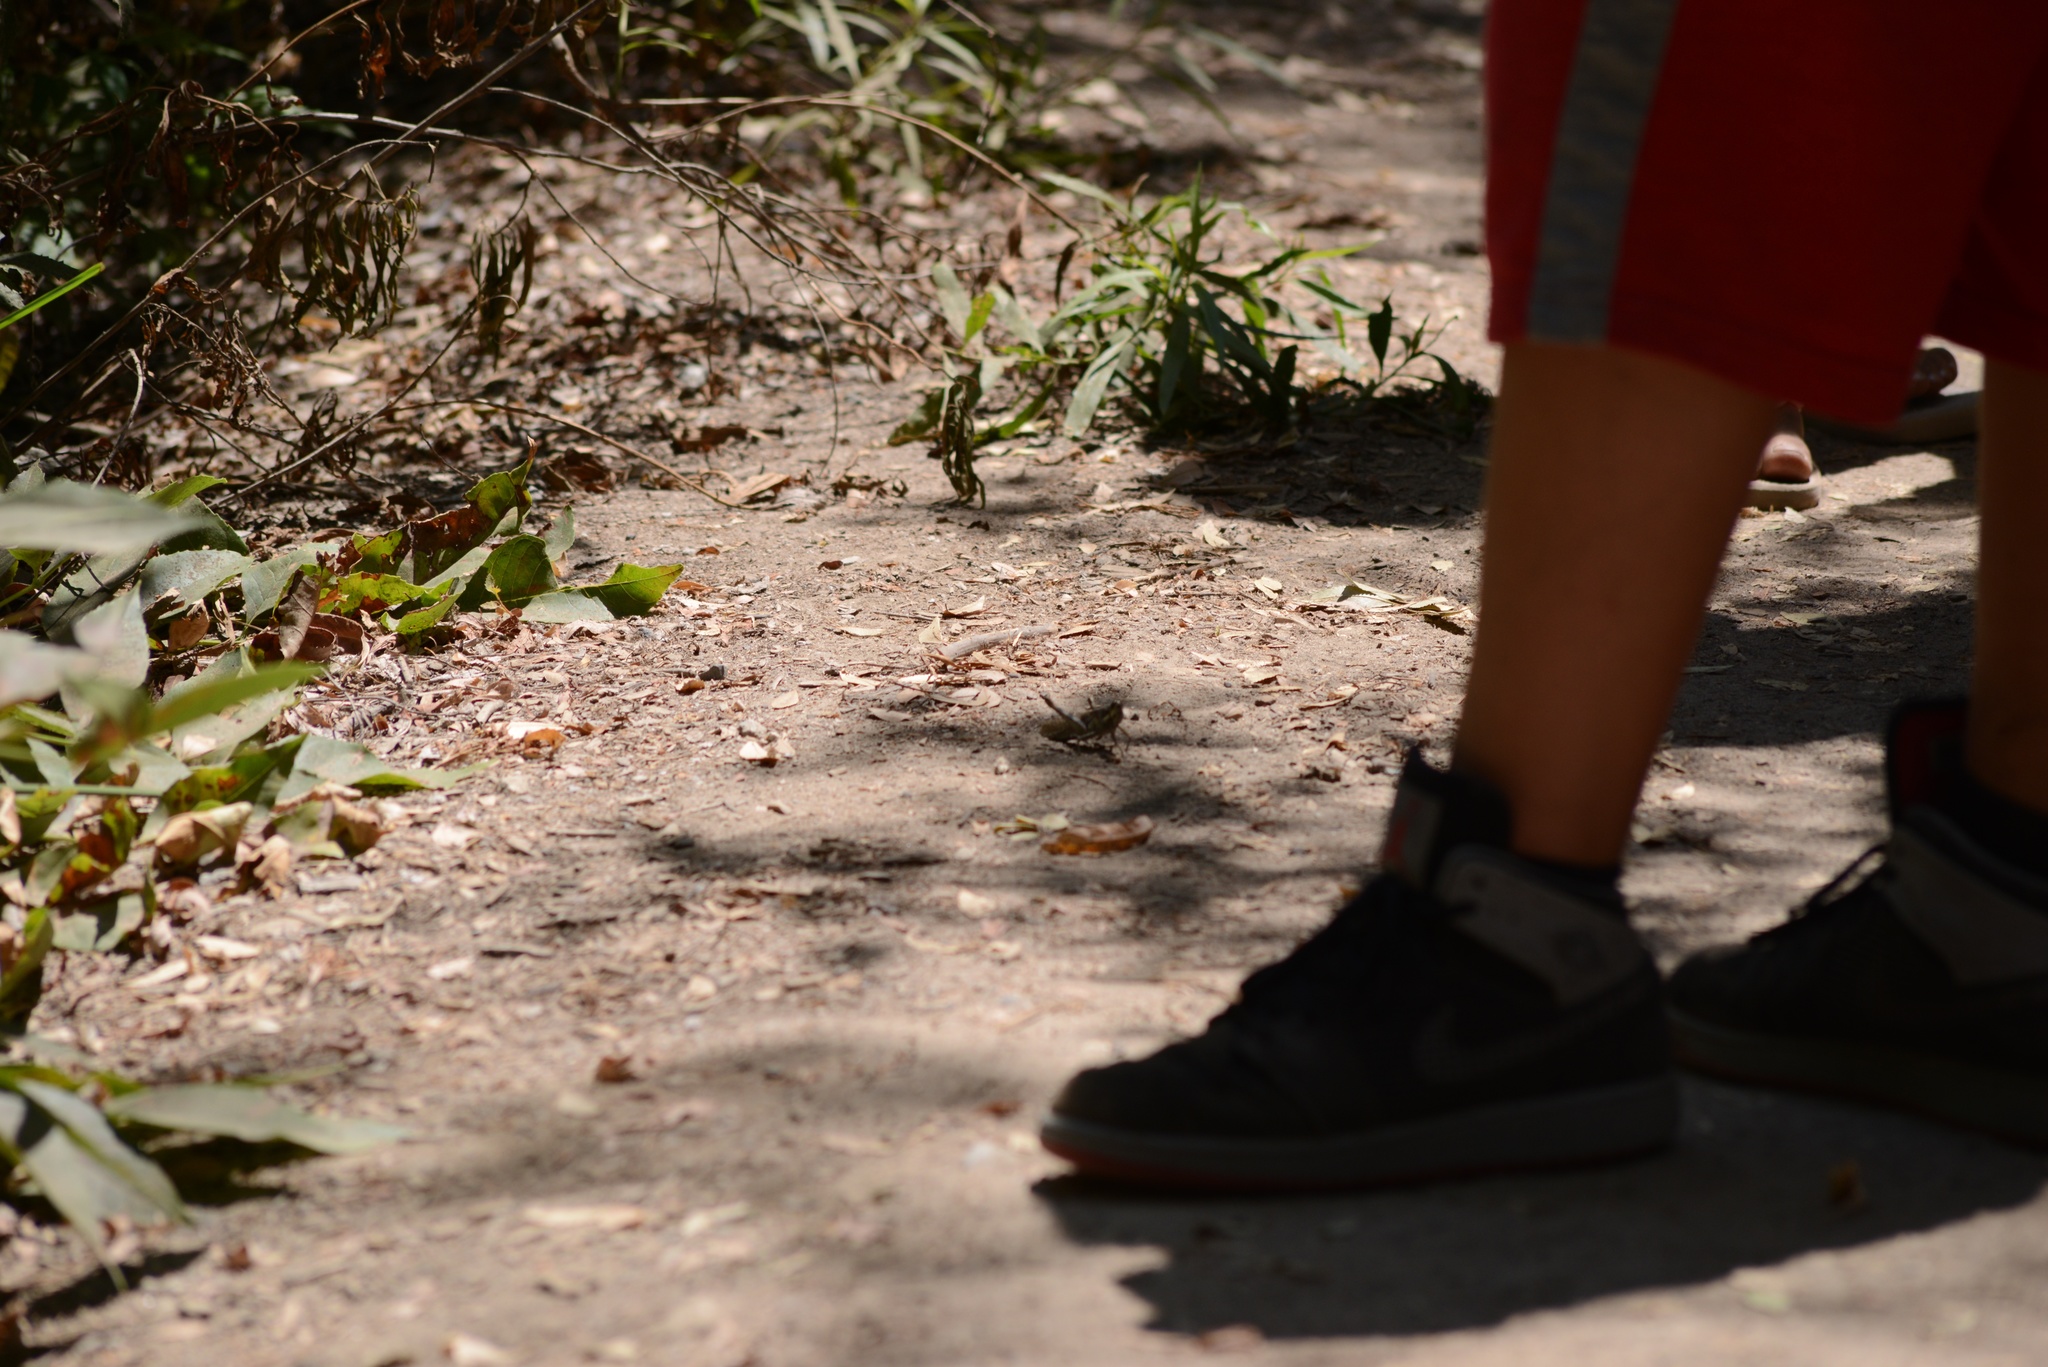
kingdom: Animalia
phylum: Arthropoda
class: Insecta
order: Orthoptera
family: Acrididae
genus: Schistocerca
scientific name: Schistocerca nitens
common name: Vagrant grasshopper
